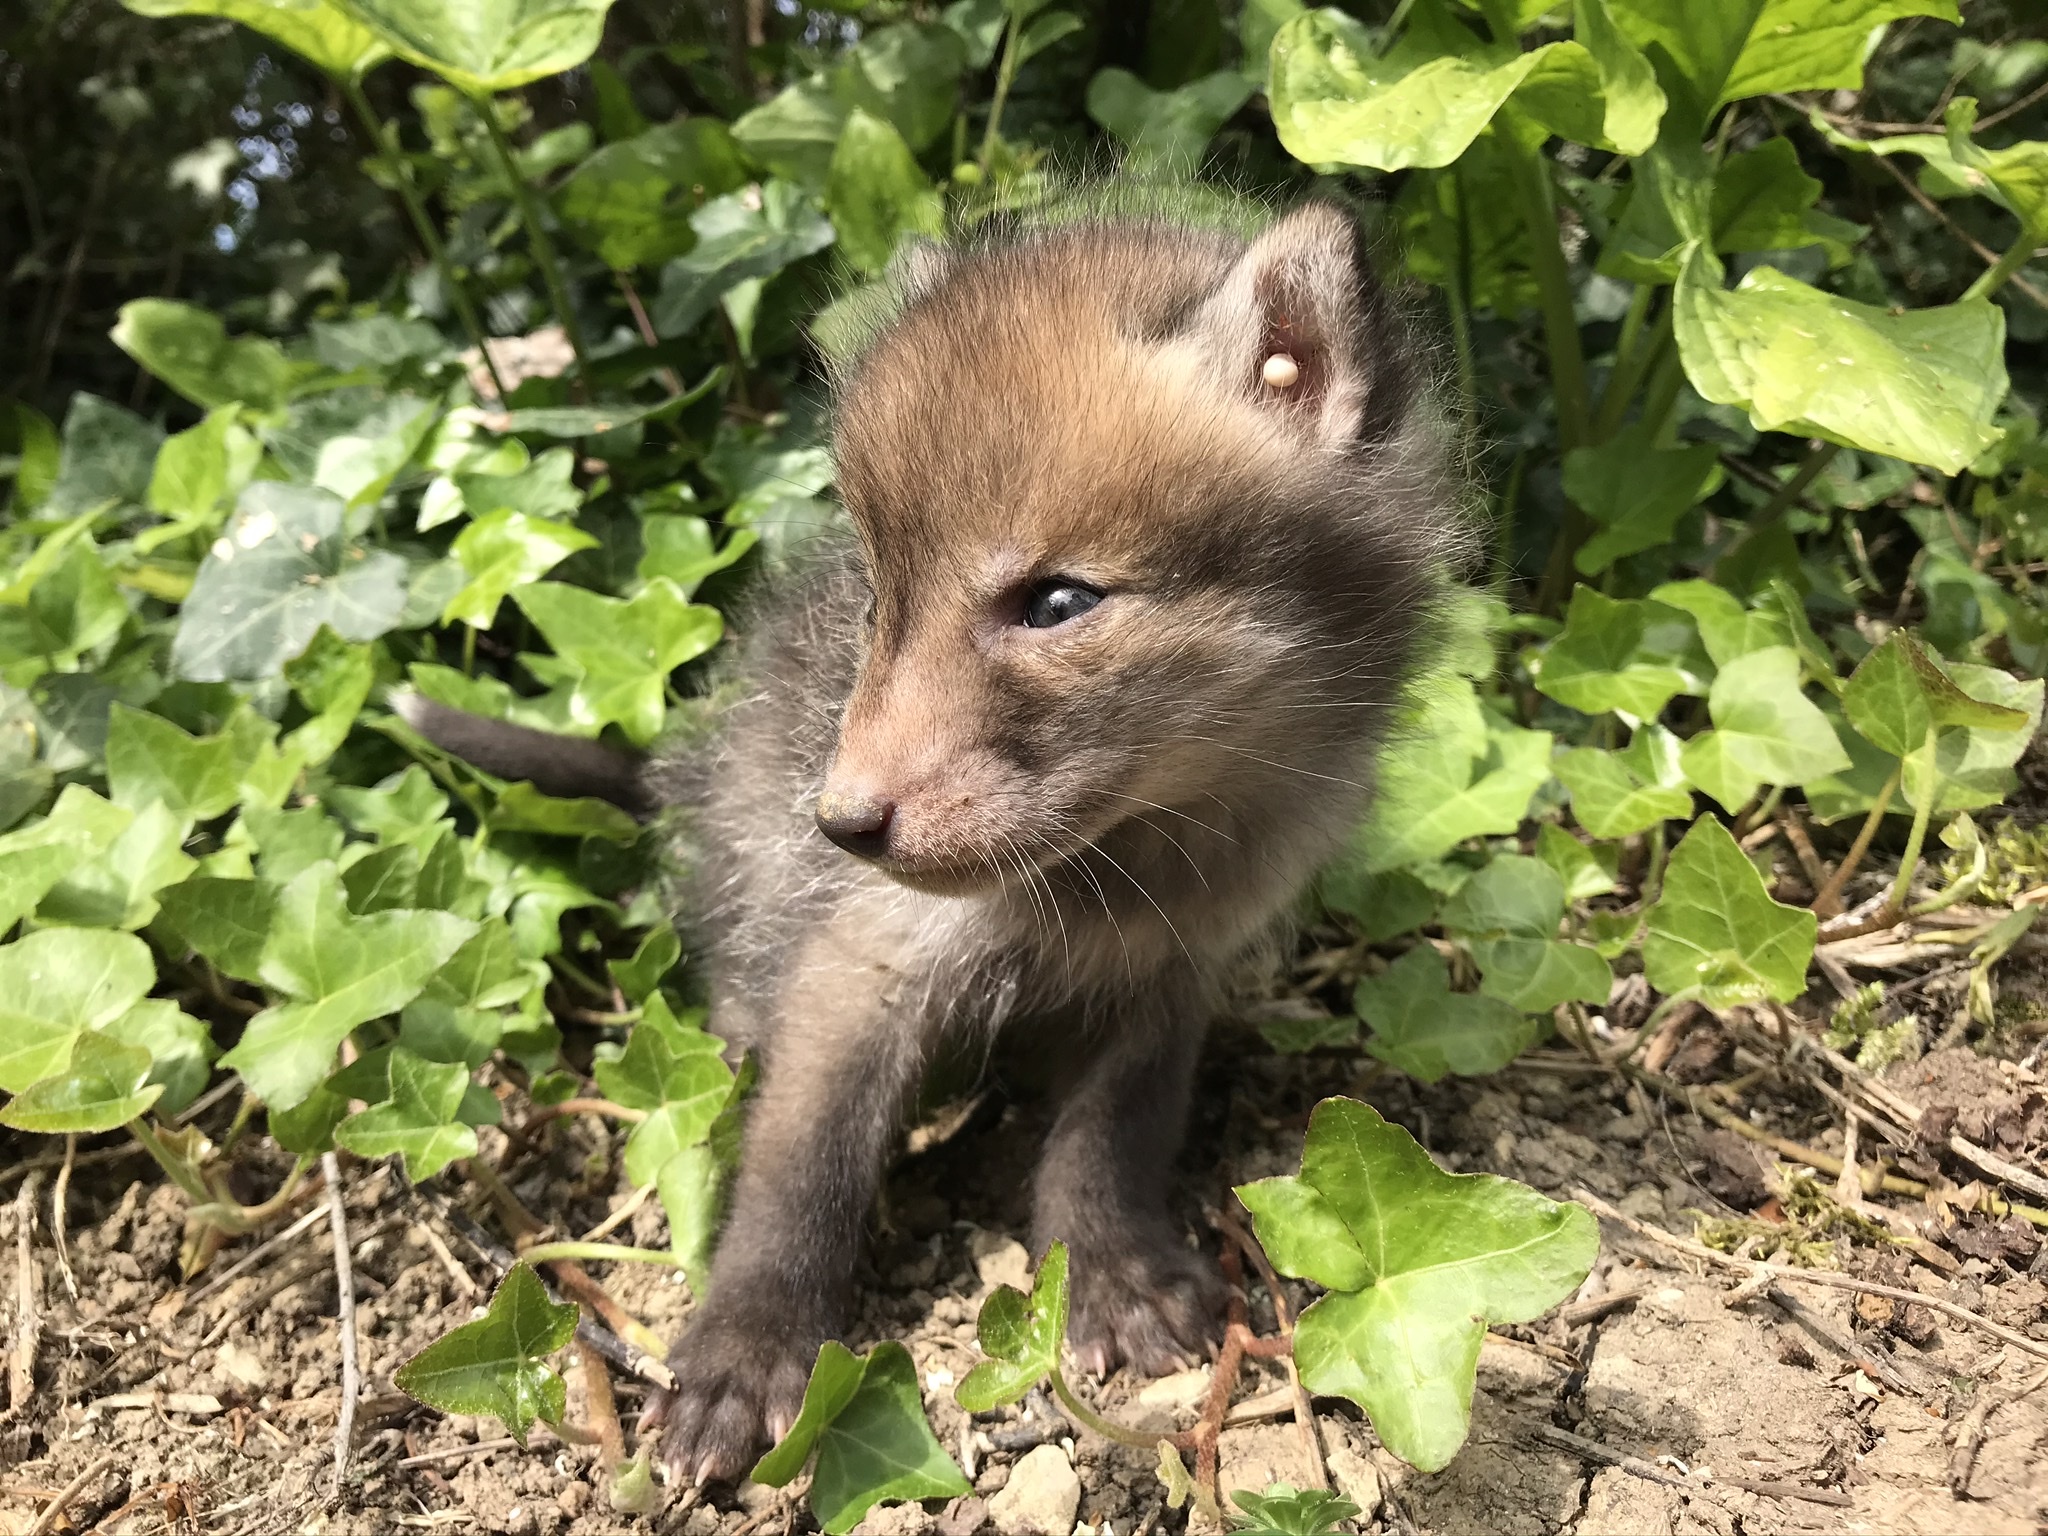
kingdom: Animalia
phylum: Chordata
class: Mammalia
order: Carnivora
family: Canidae
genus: Vulpes
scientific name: Vulpes vulpes
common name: Red fox
